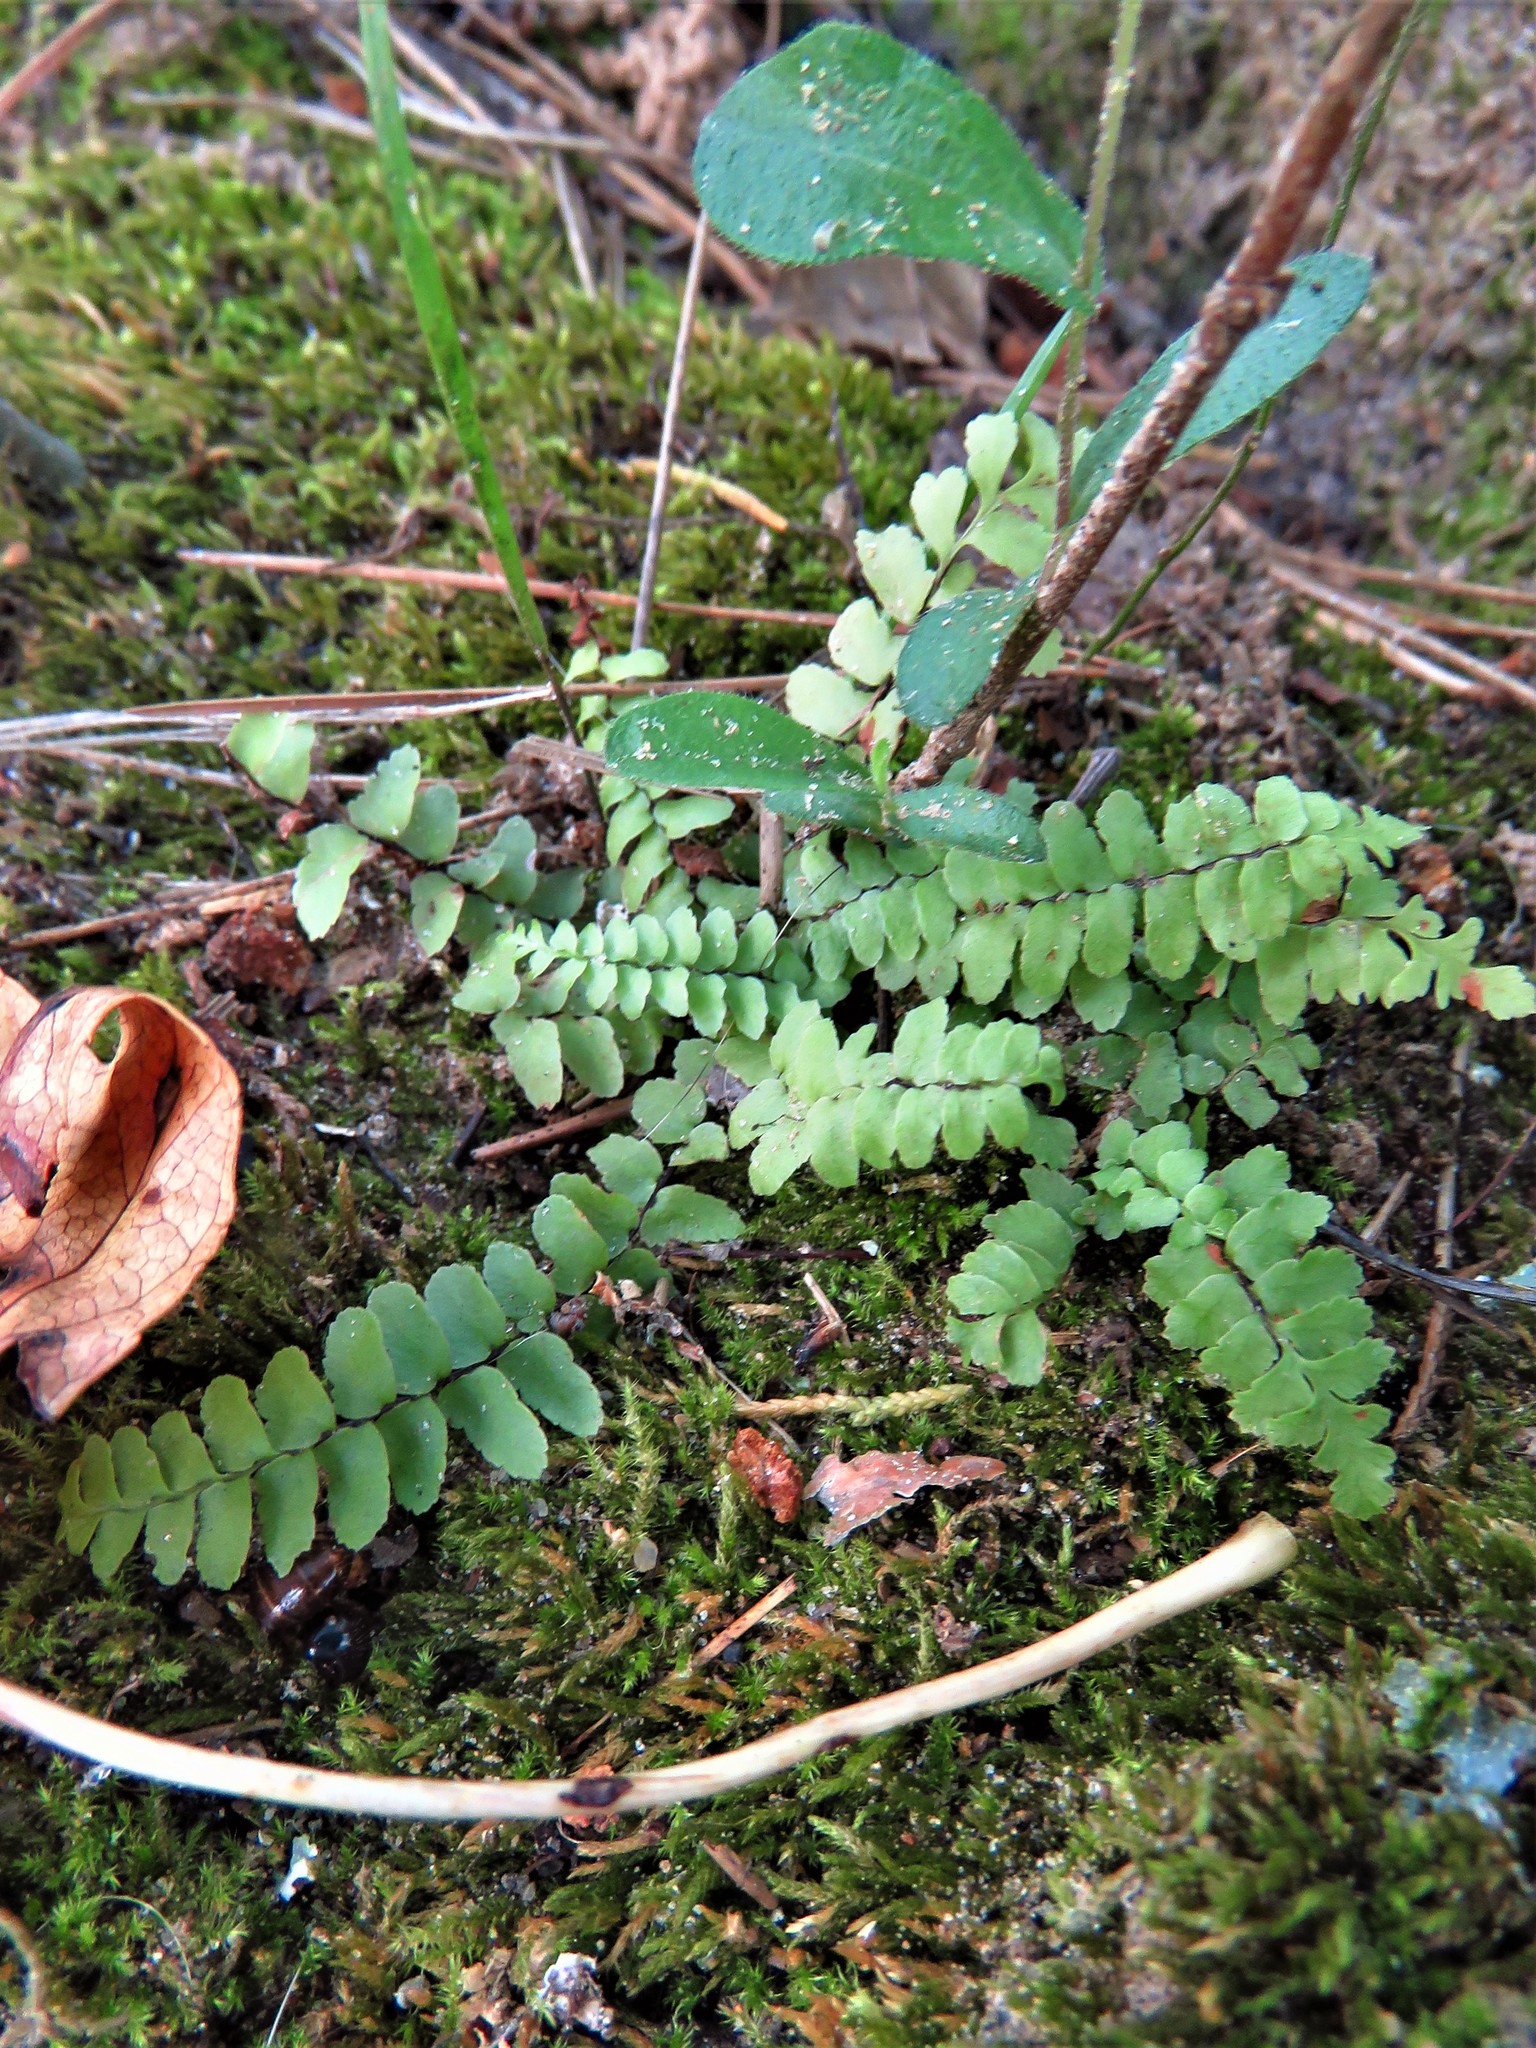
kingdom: Plantae
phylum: Tracheophyta
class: Polypodiopsida
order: Polypodiales
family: Aspleniaceae
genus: Asplenium
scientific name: Asplenium platyneuron
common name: Ebony spleenwort
